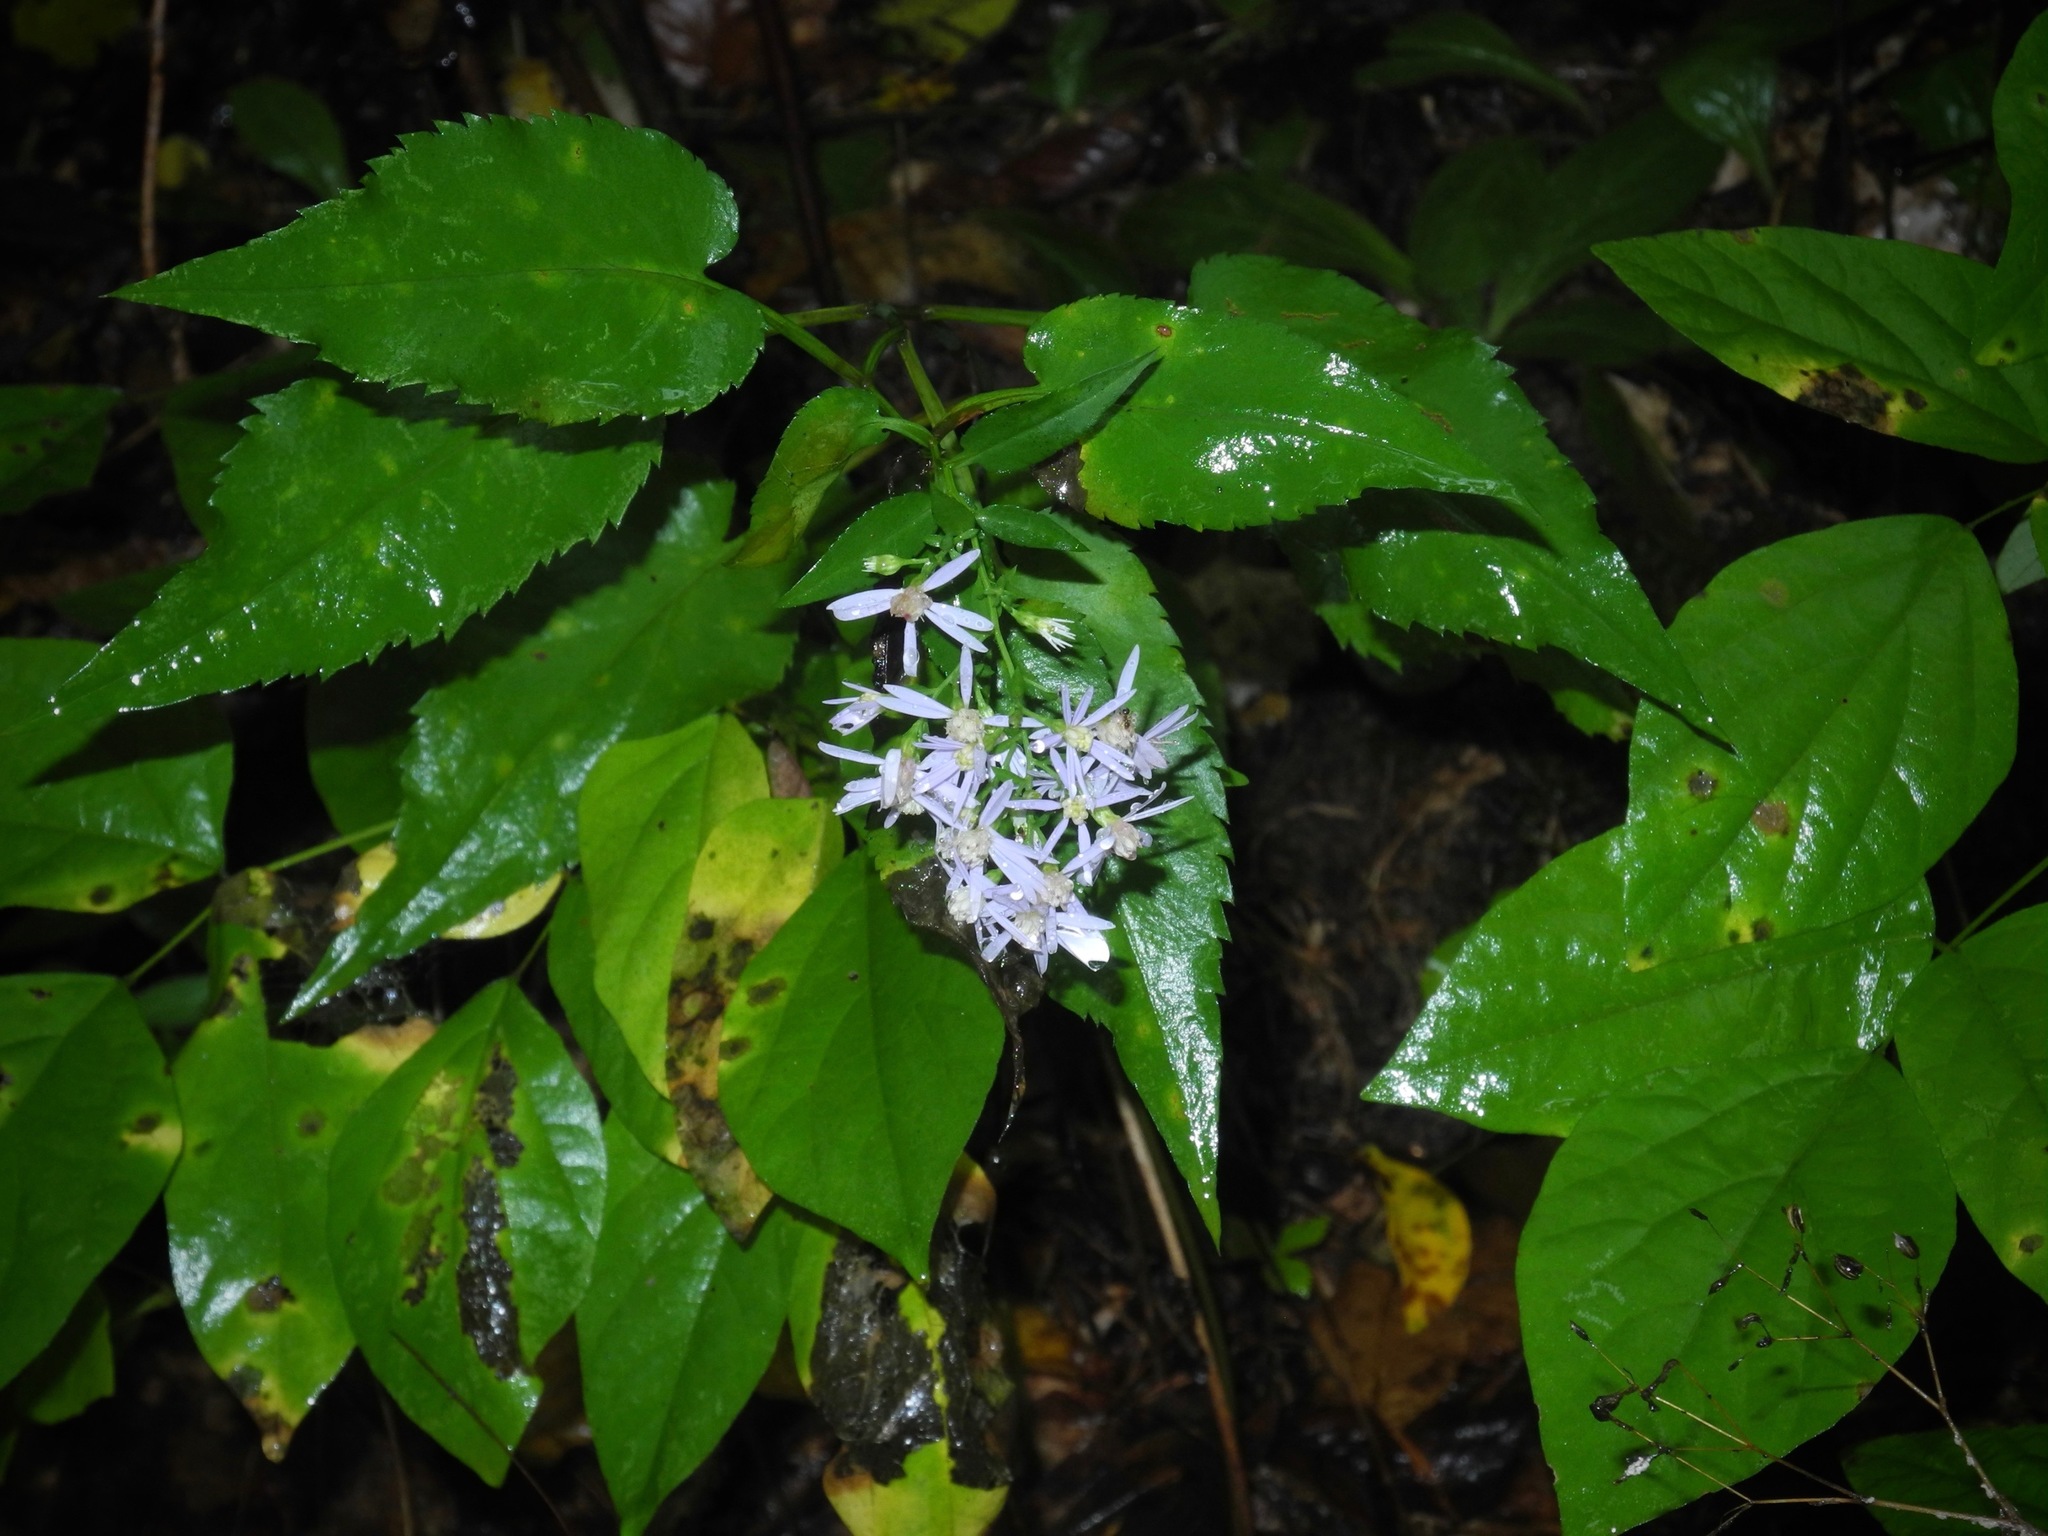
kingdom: Plantae
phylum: Tracheophyta
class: Magnoliopsida
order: Asterales
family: Asteraceae
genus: Symphyotrichum
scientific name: Symphyotrichum cordifolium
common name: Beeweed
